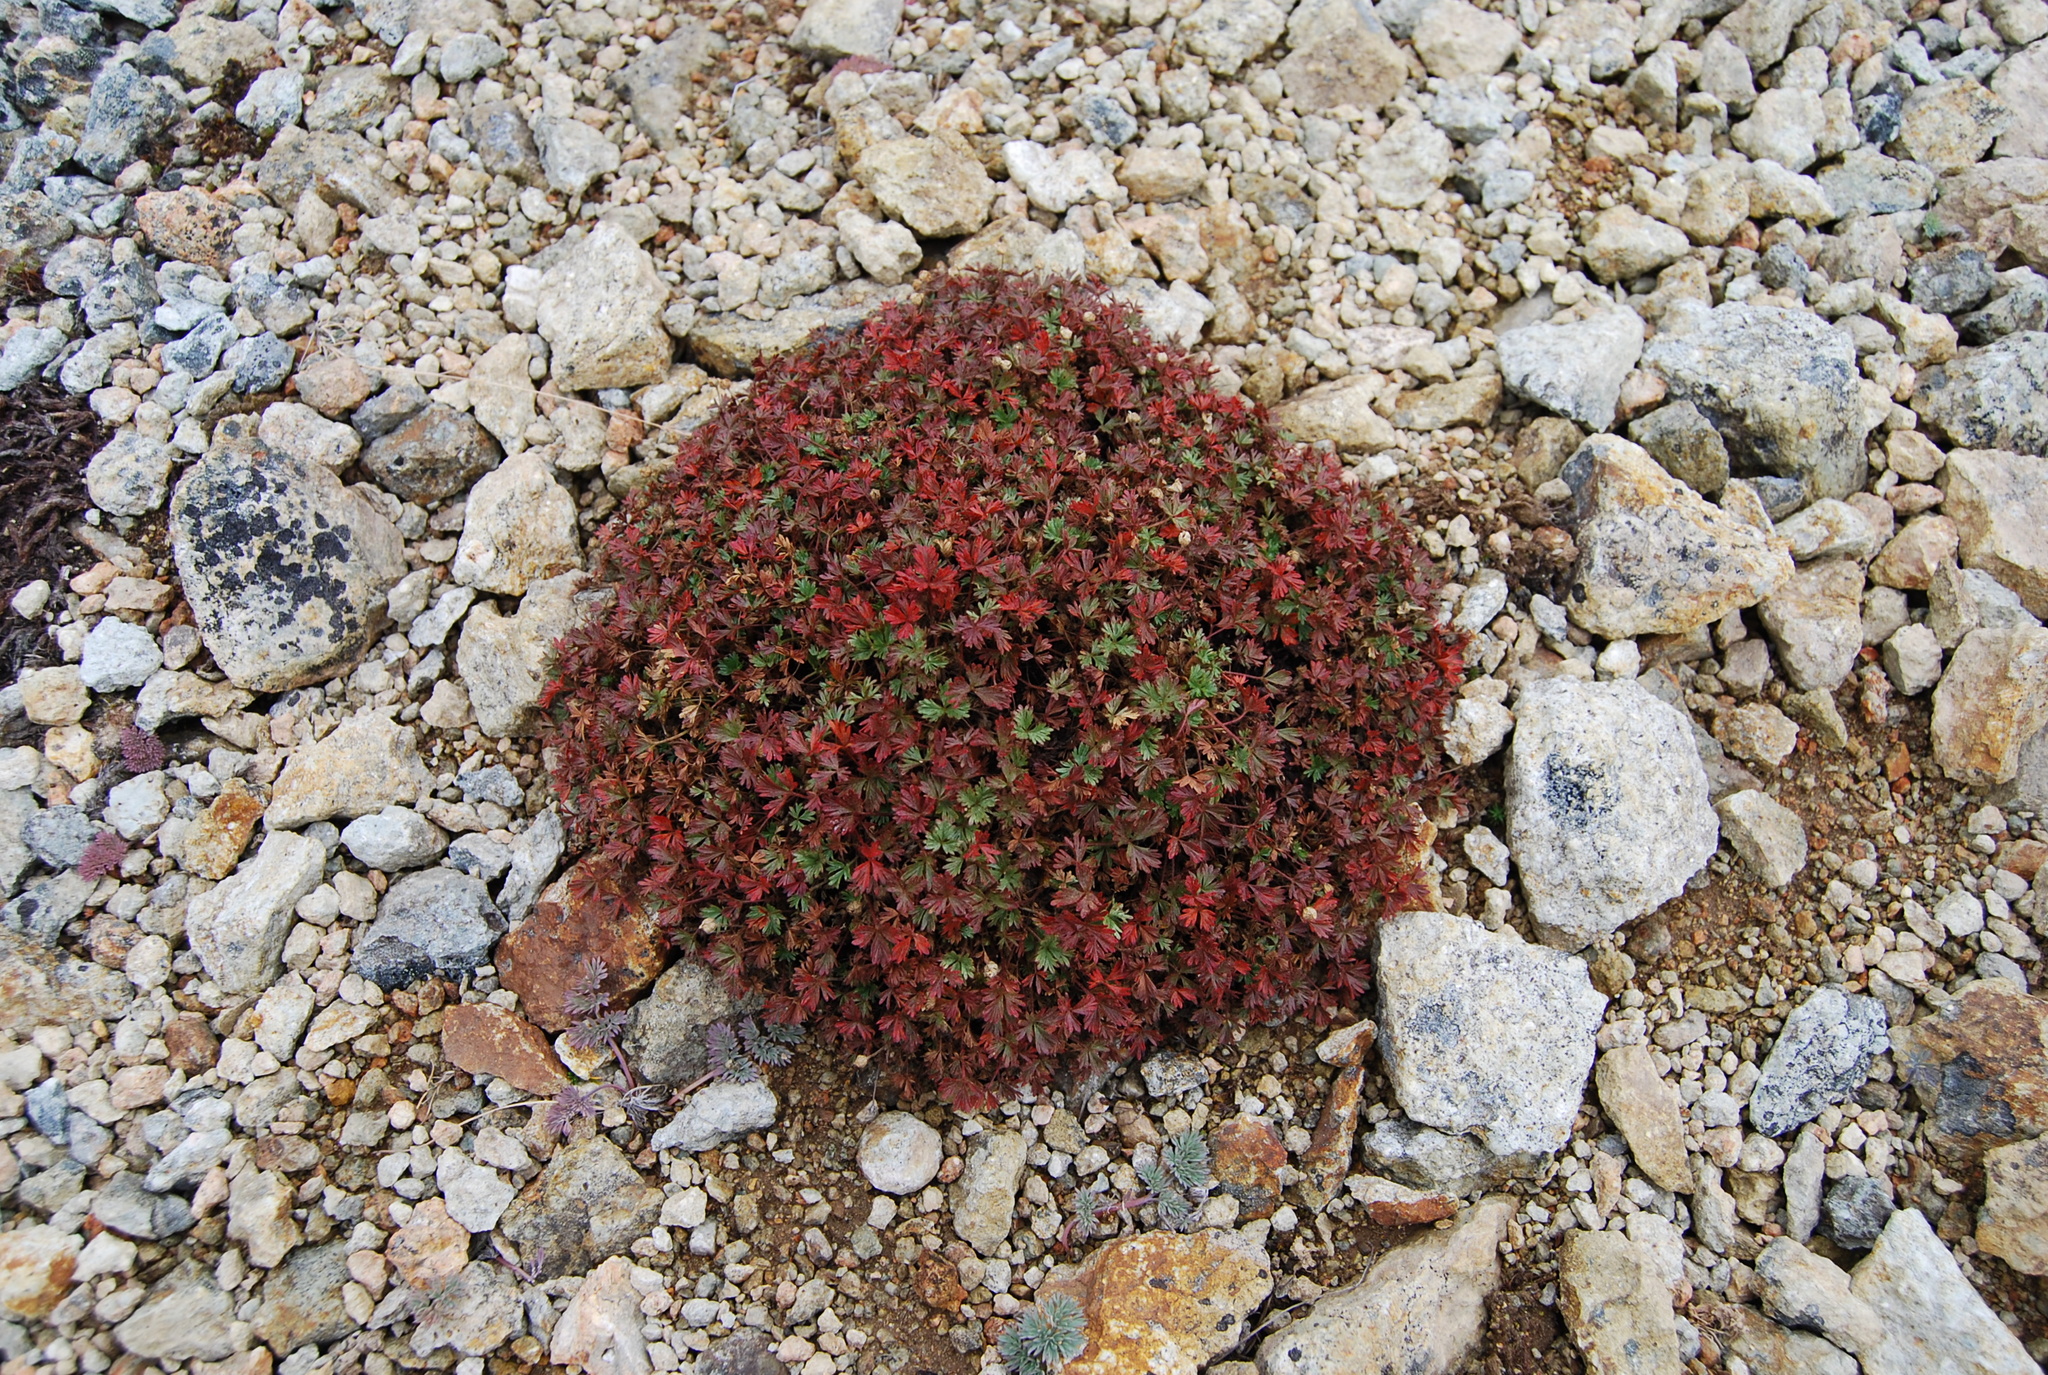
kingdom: Plantae
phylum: Tracheophyta
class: Magnoliopsida
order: Rosales
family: Rosaceae
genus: Potentilla
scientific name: Potentilla elegans
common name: Elegant cinquefoil
